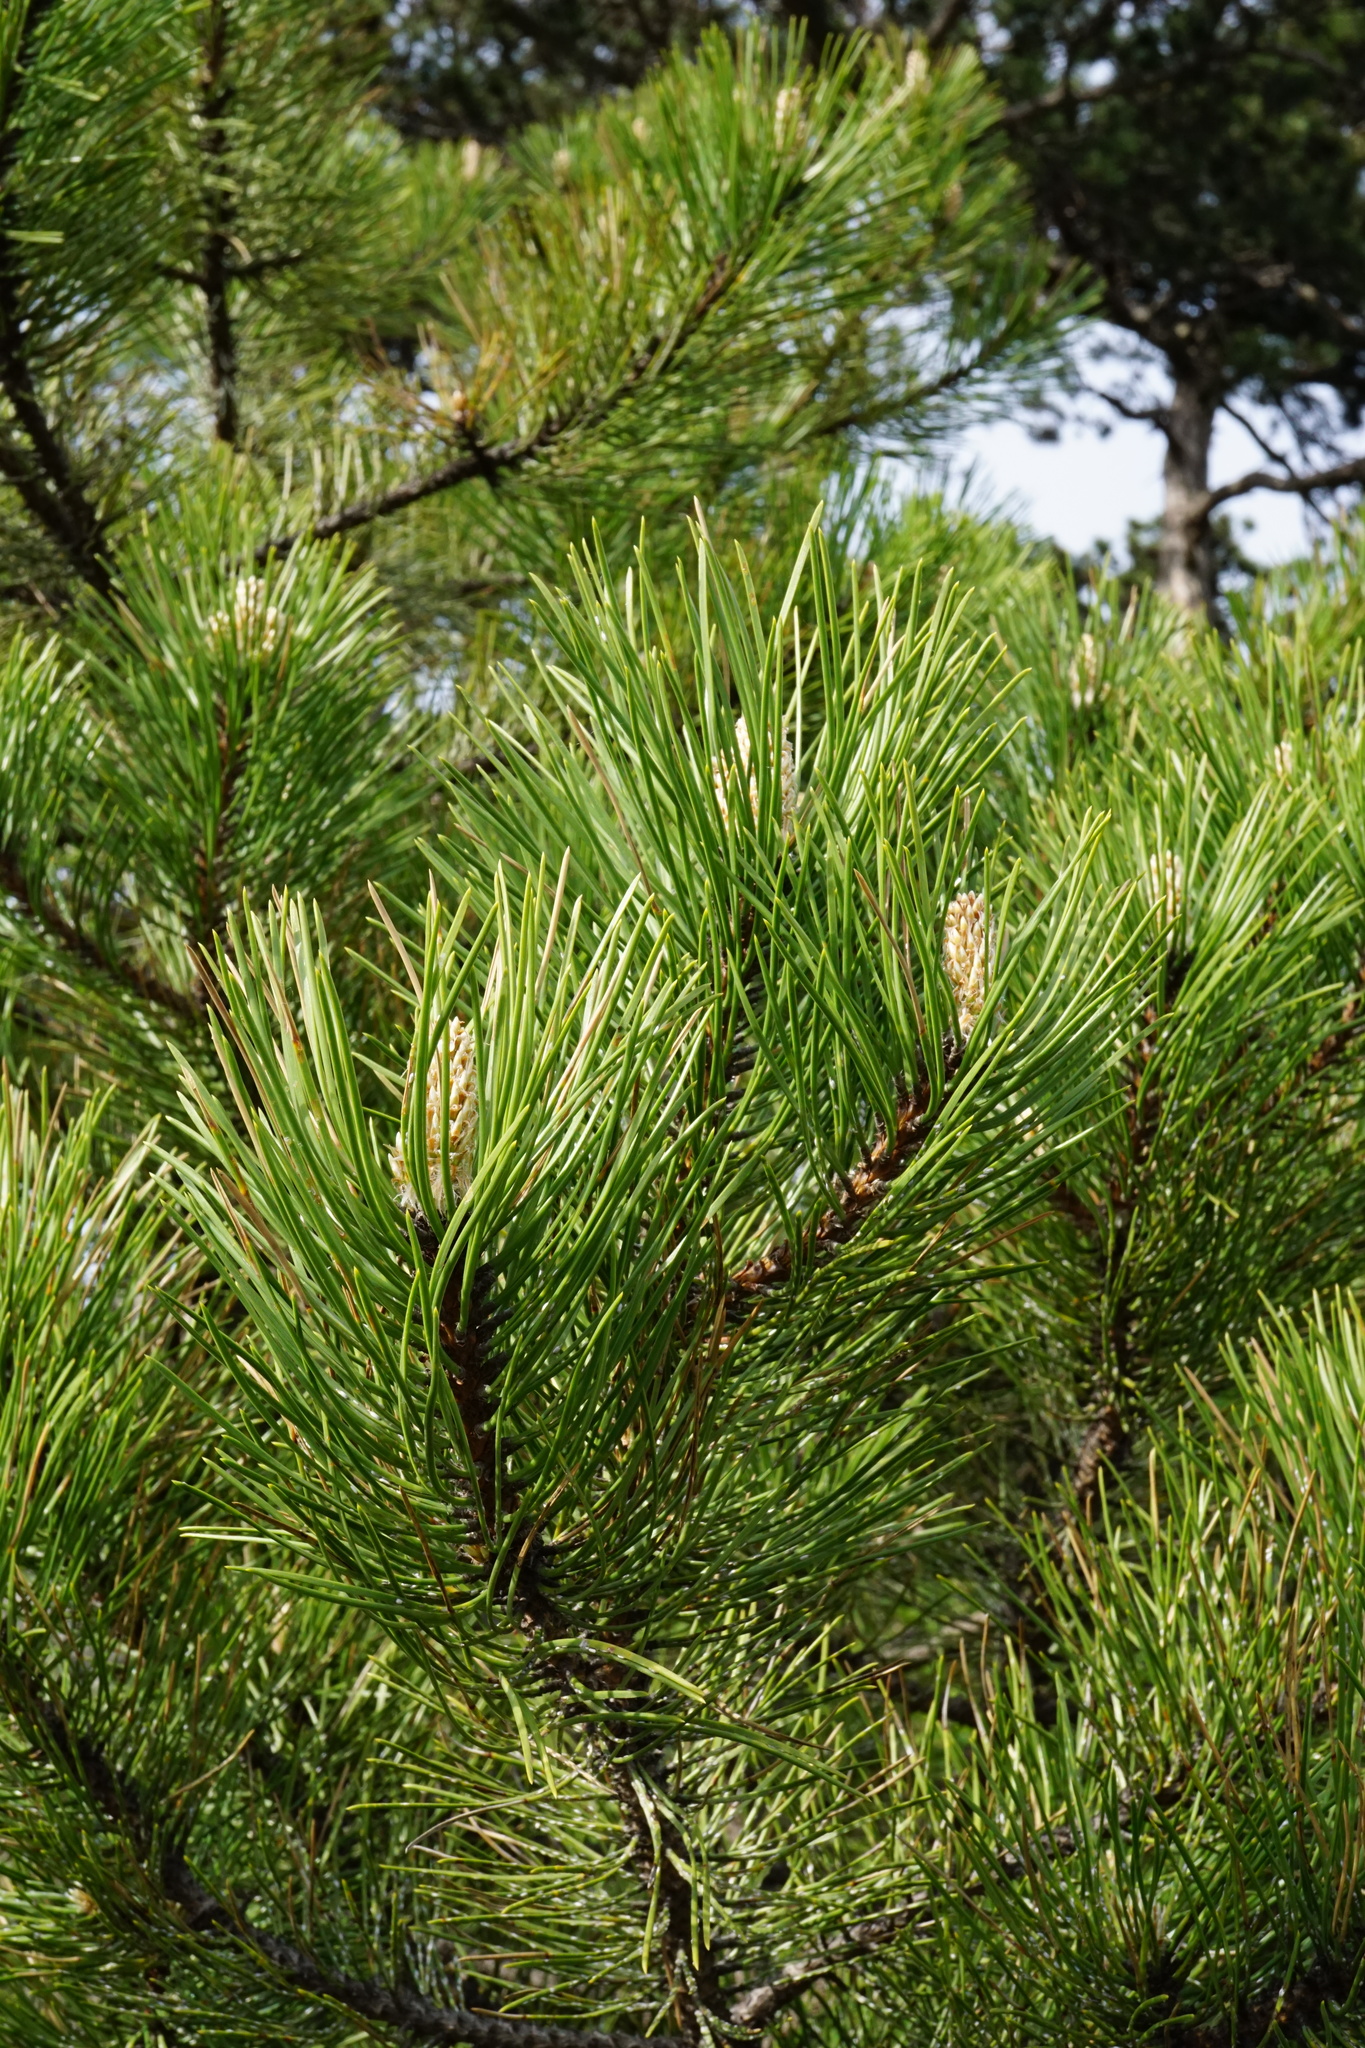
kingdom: Plantae
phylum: Tracheophyta
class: Pinopsida
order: Pinales
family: Pinaceae
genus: Pinus
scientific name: Pinus nigra
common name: Austrian pine
